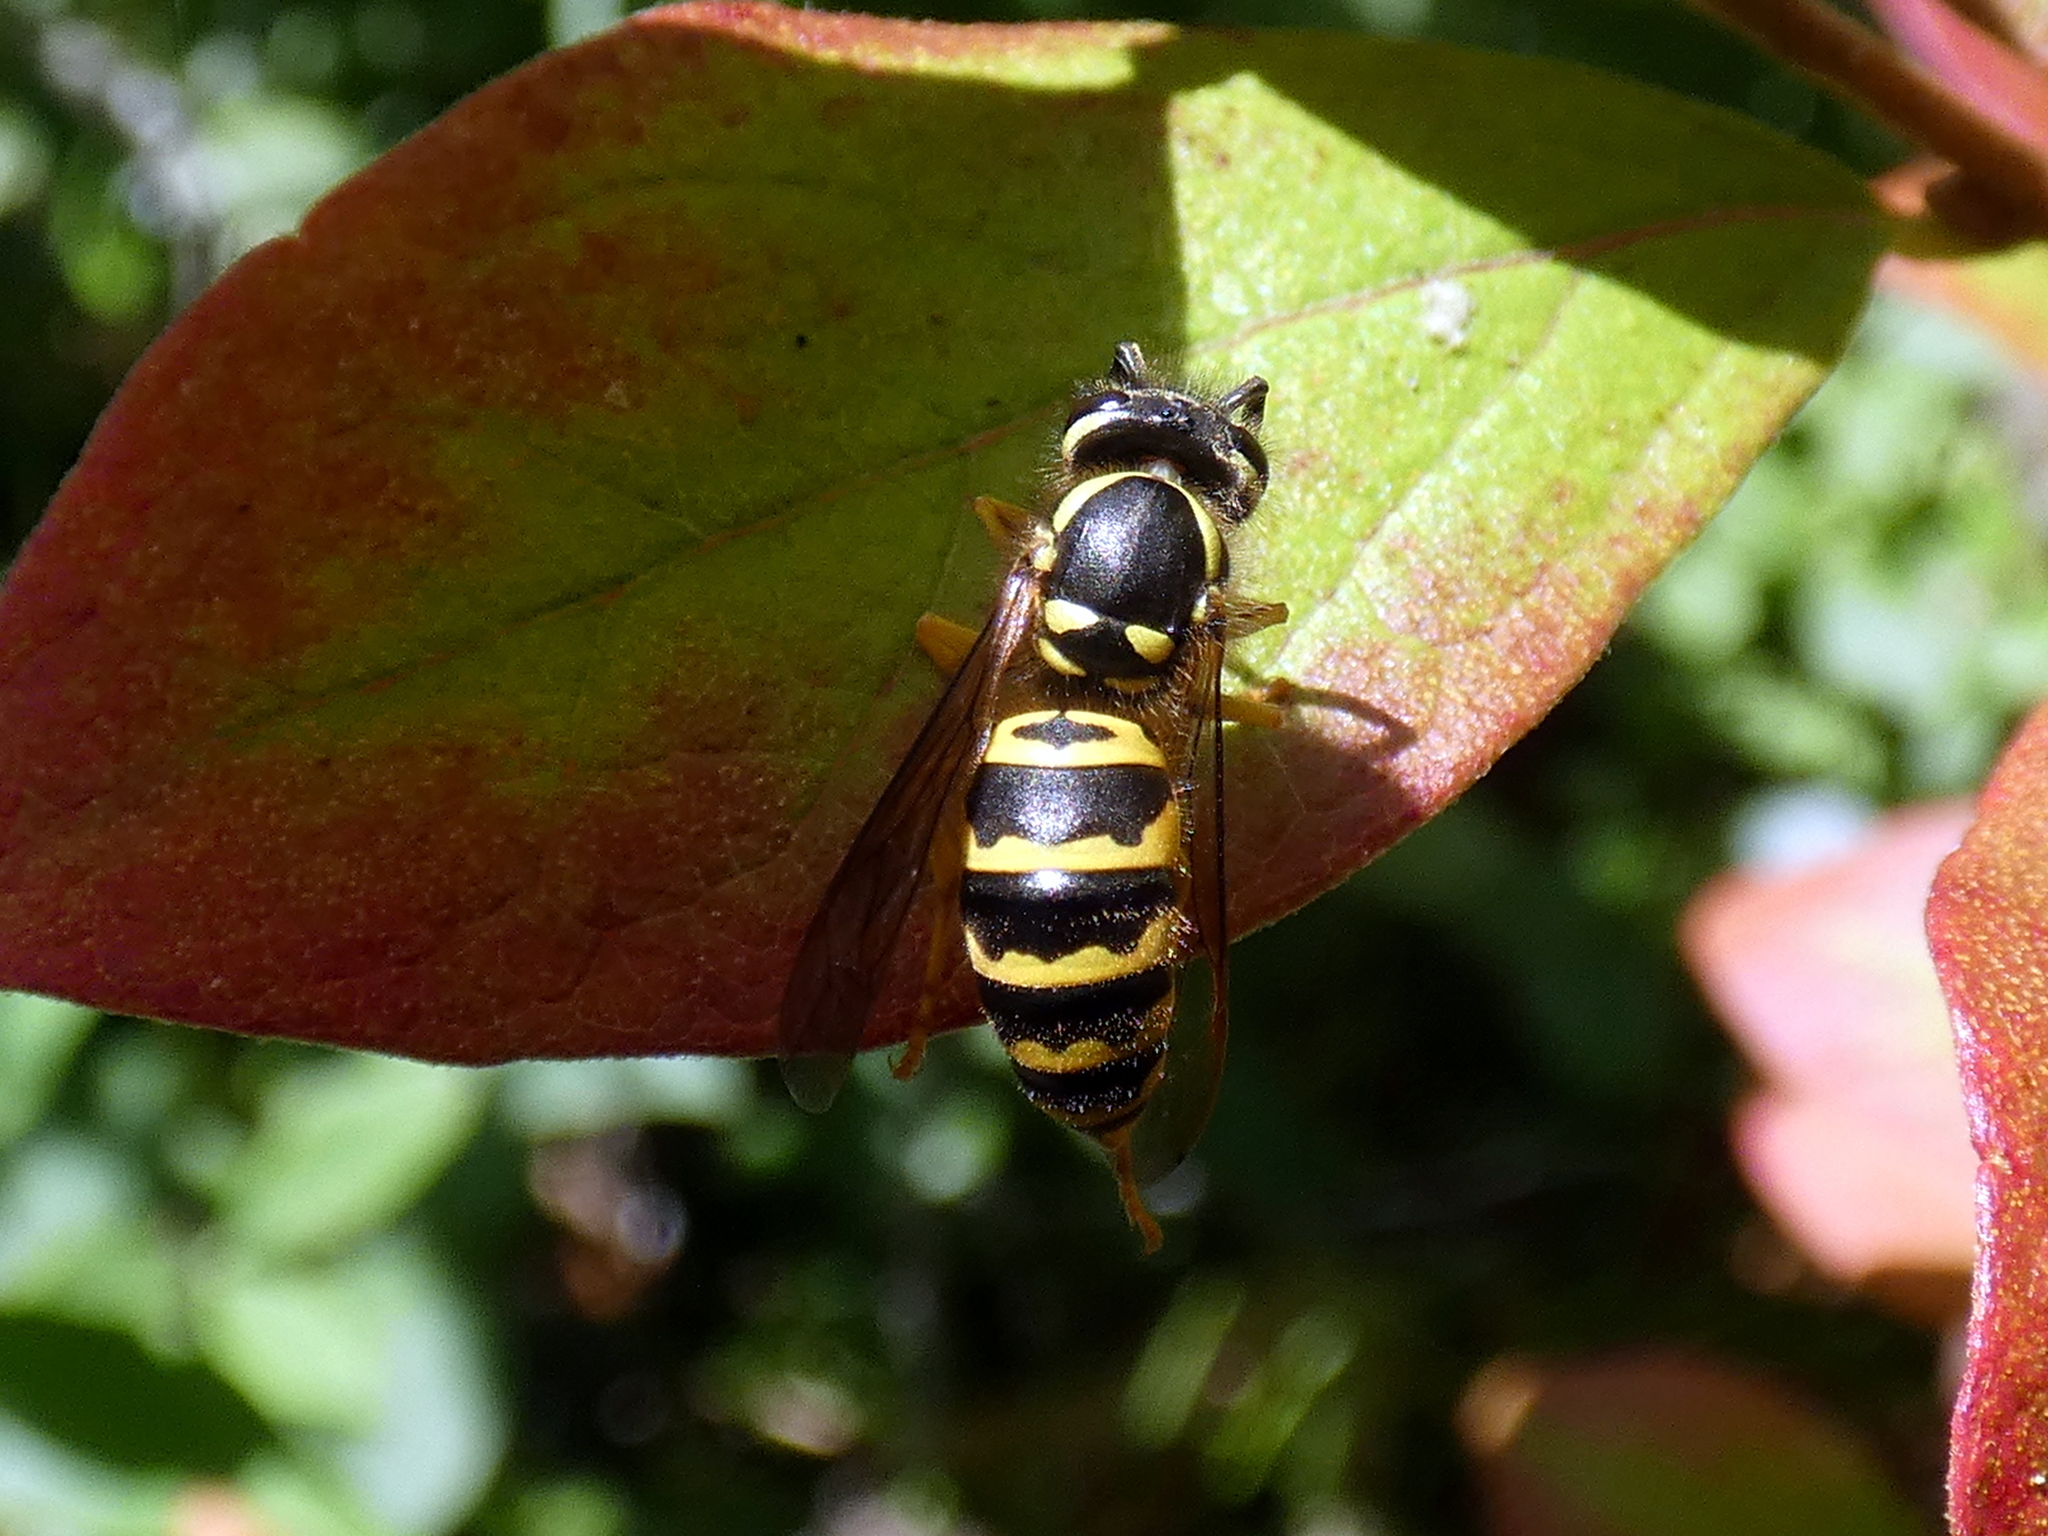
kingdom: Animalia
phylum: Arthropoda
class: Insecta
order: Hymenoptera
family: Vespidae
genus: Vespula
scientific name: Vespula maculifrons
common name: Eastern yellowjacket
